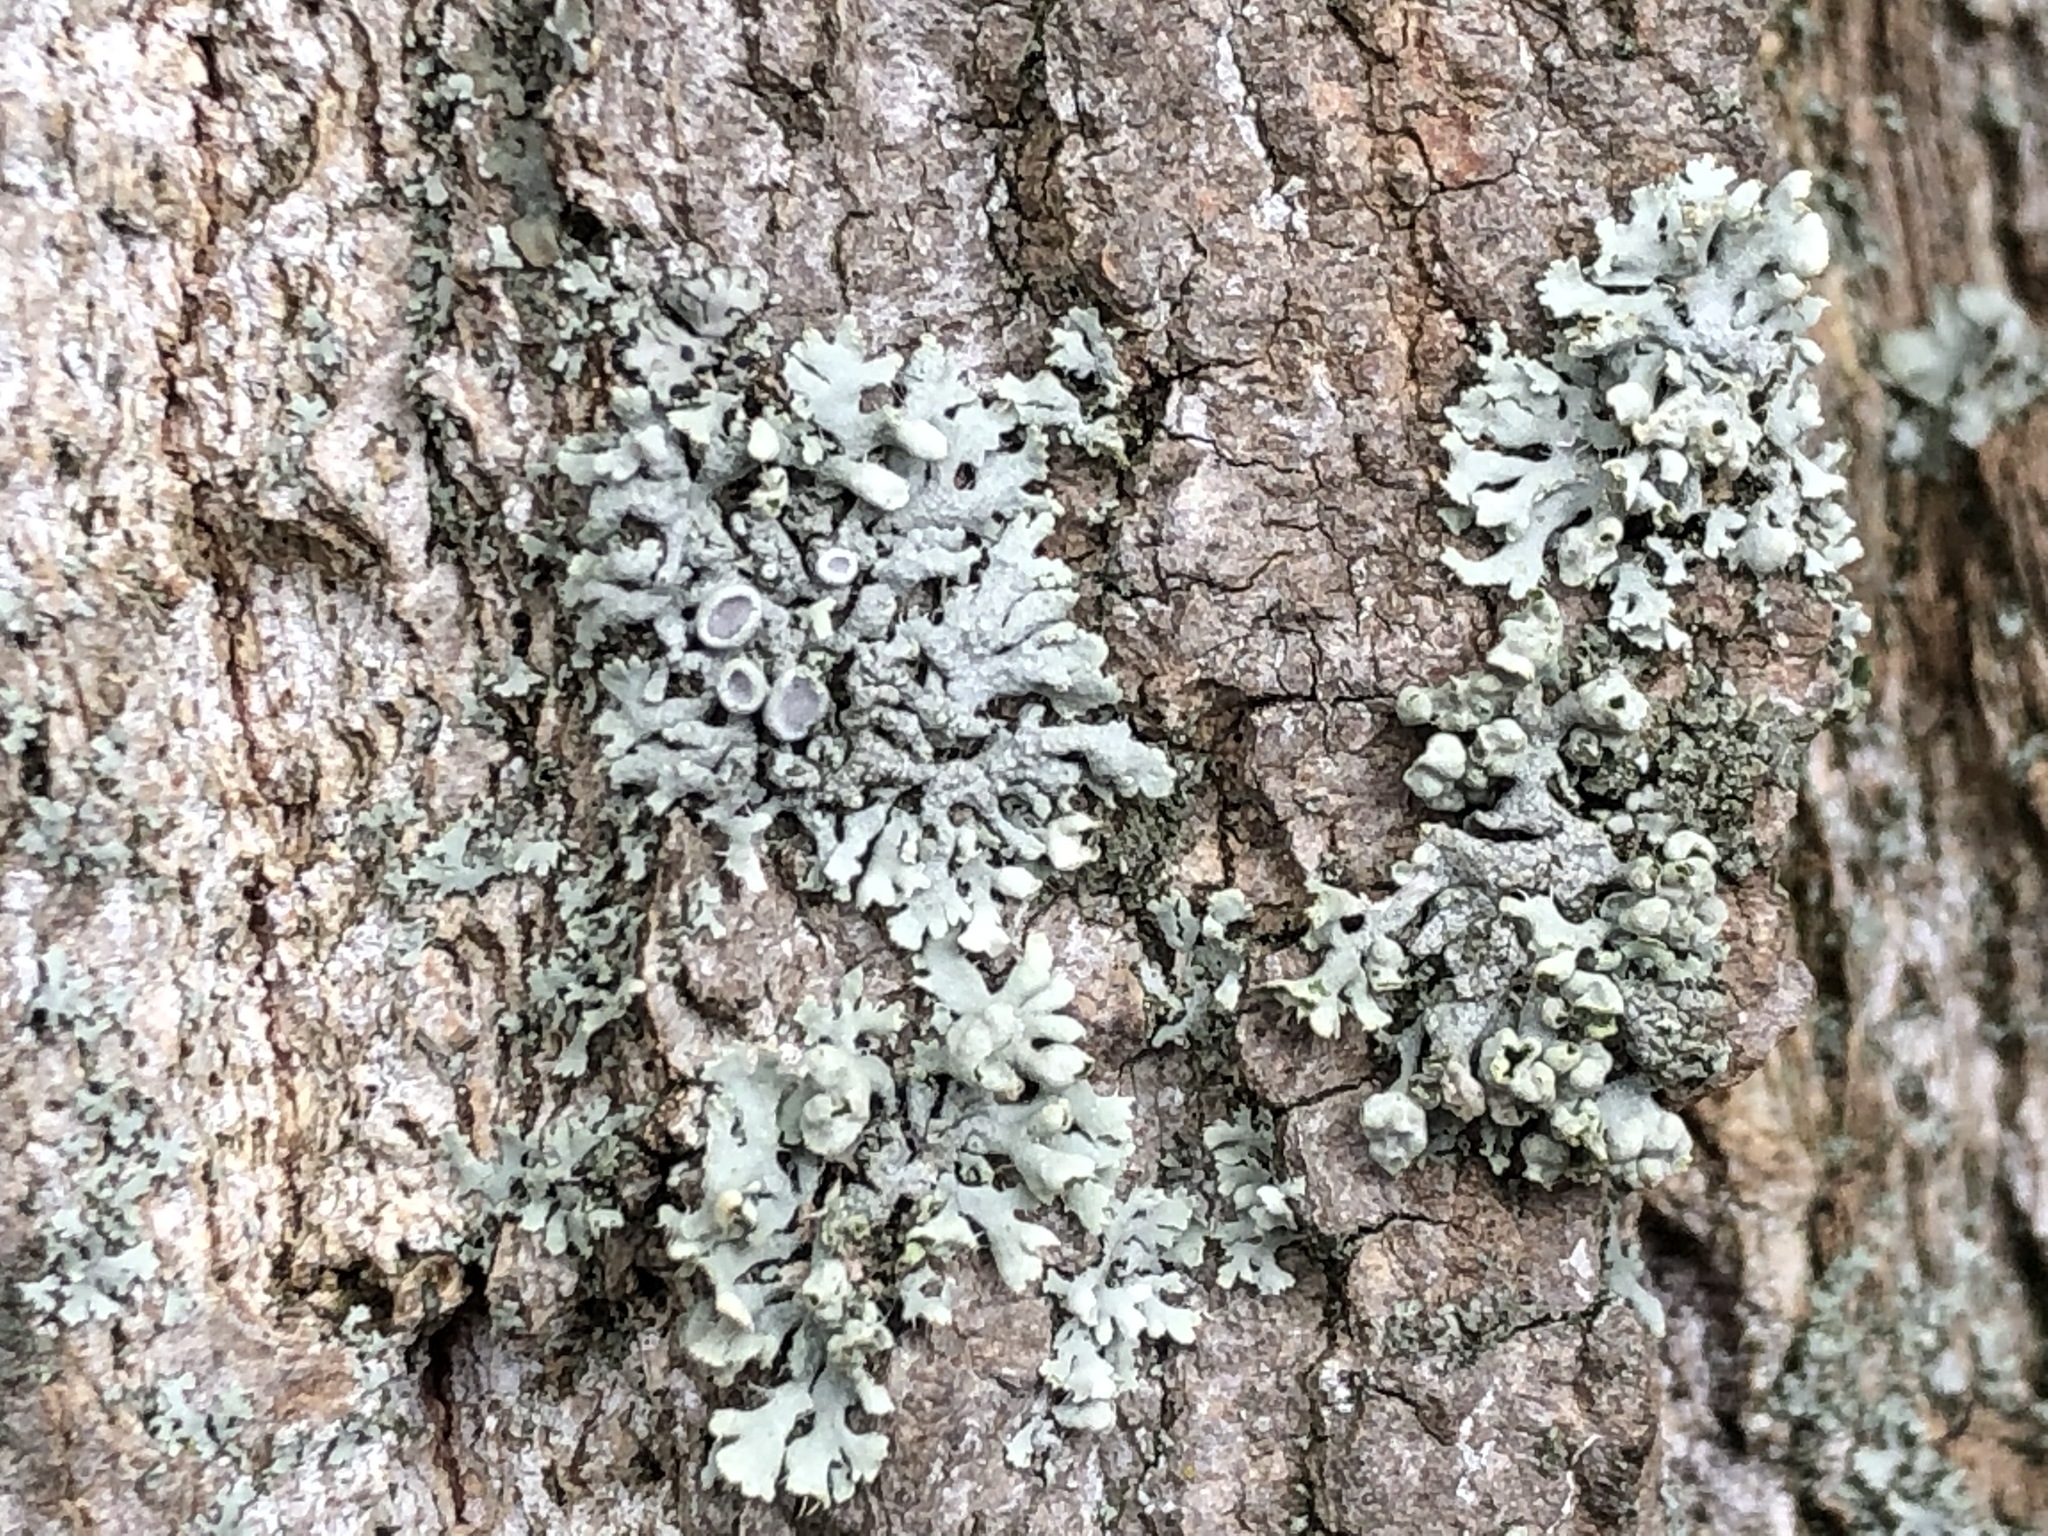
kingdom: Fungi
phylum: Ascomycota
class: Lecanoromycetes
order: Caliciales
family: Physciaceae
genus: Physcia
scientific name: Physcia stellaris
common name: Star rosette lichen
